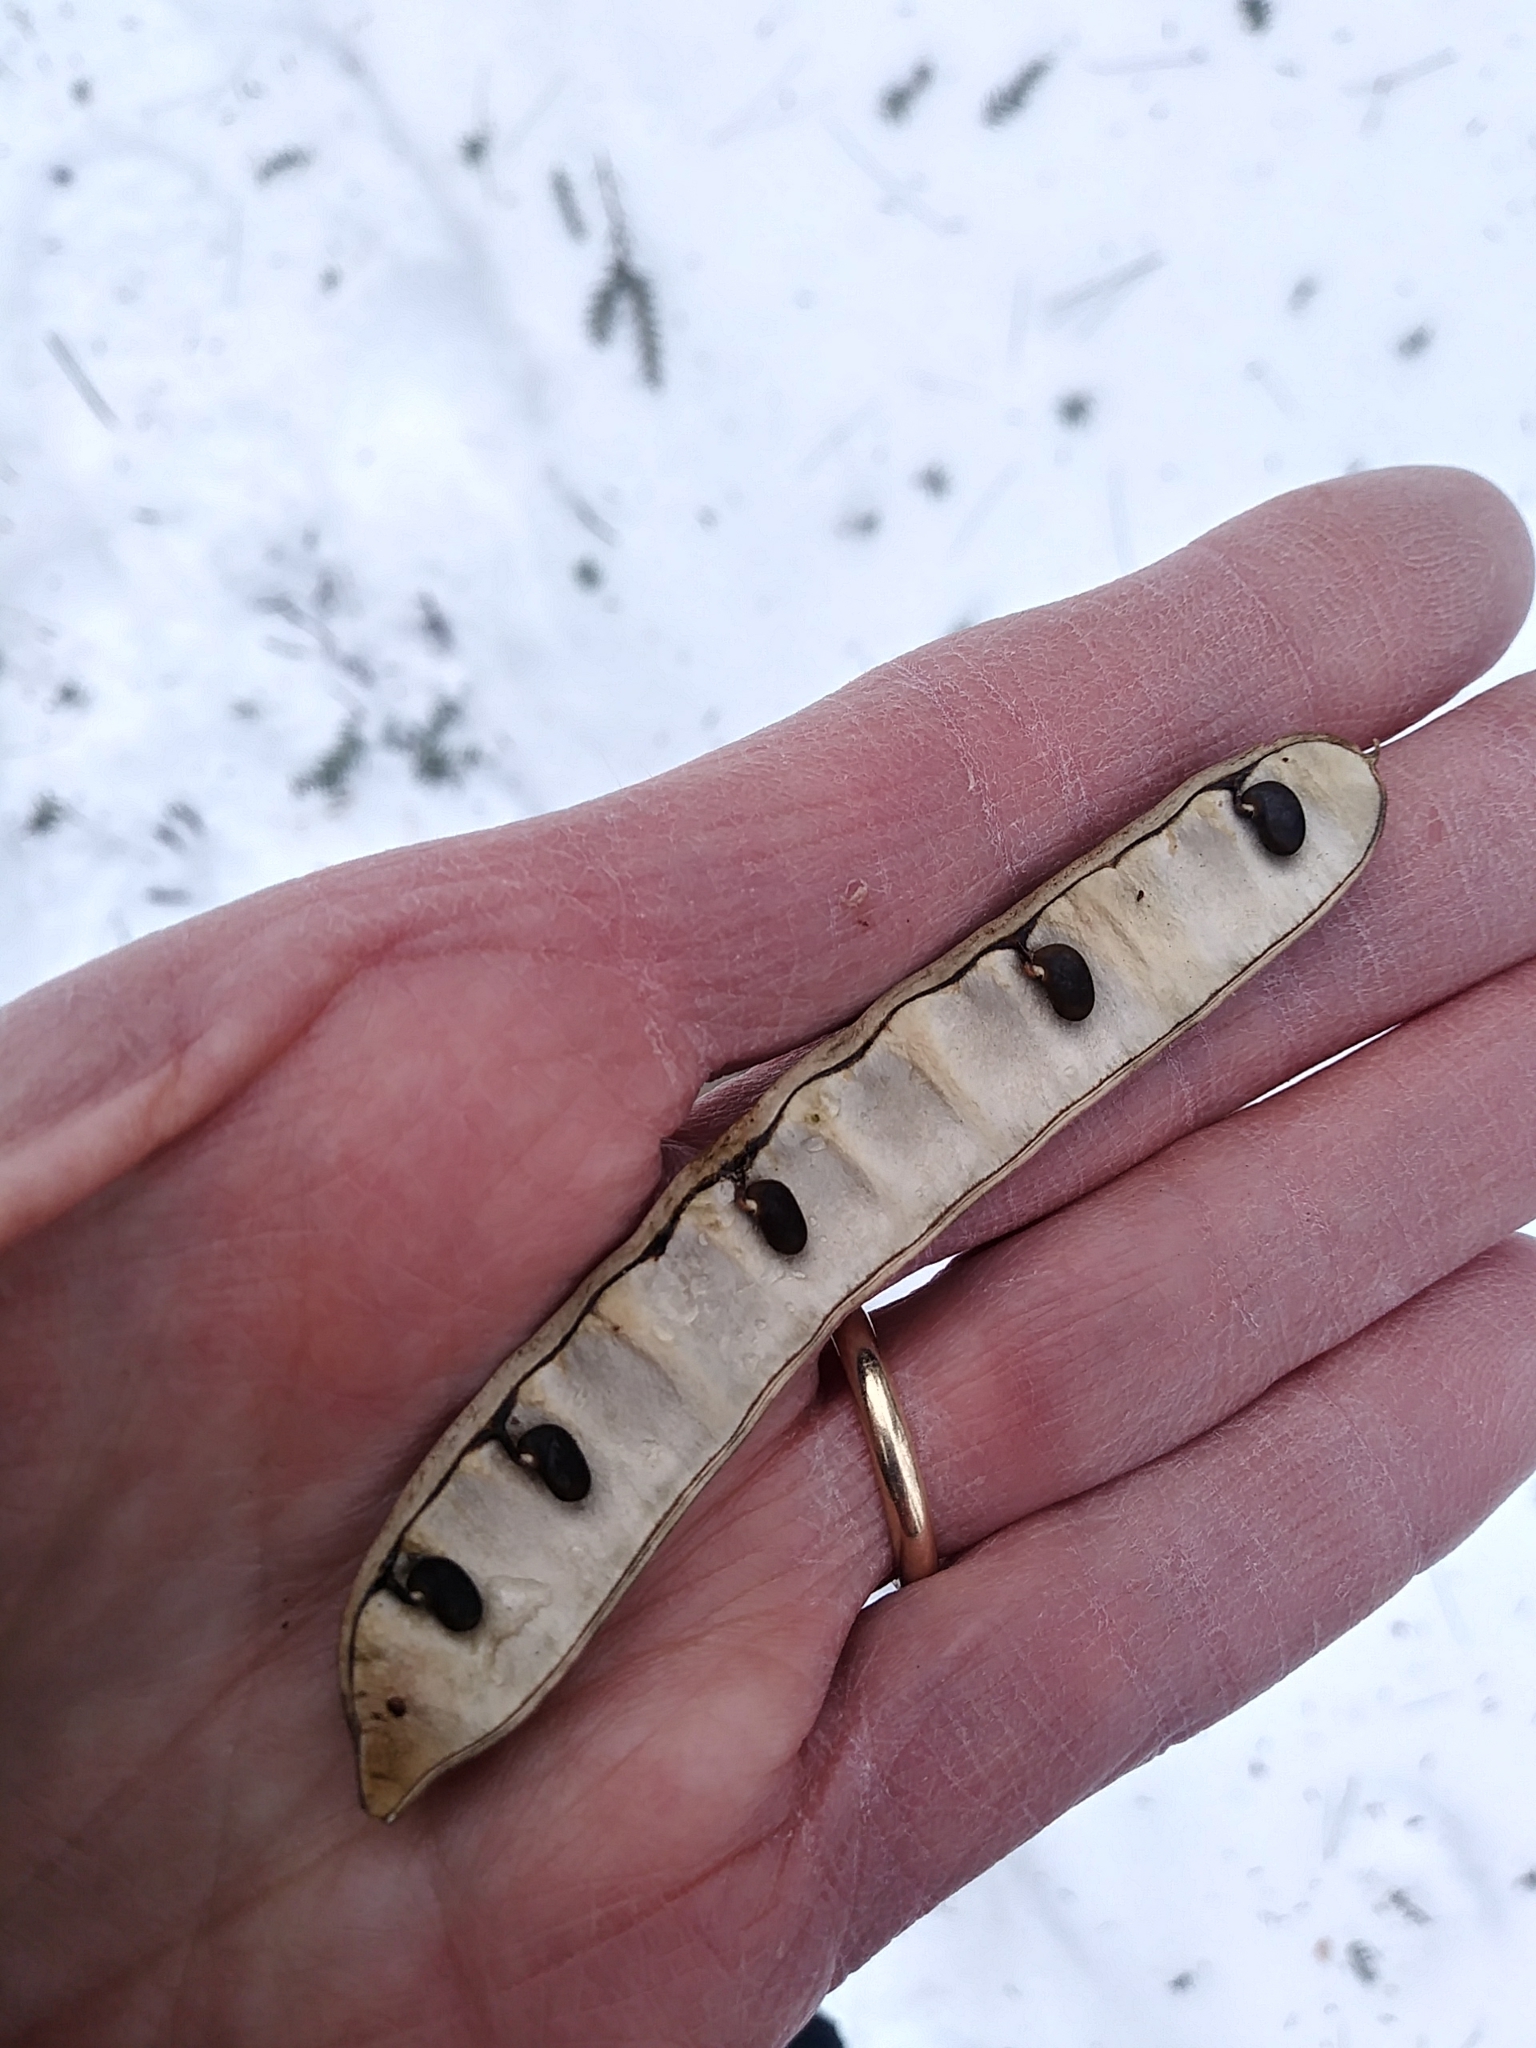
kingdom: Plantae
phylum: Tracheophyta
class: Magnoliopsida
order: Fabales
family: Fabaceae
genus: Robinia
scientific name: Robinia pseudoacacia
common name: Black locust
